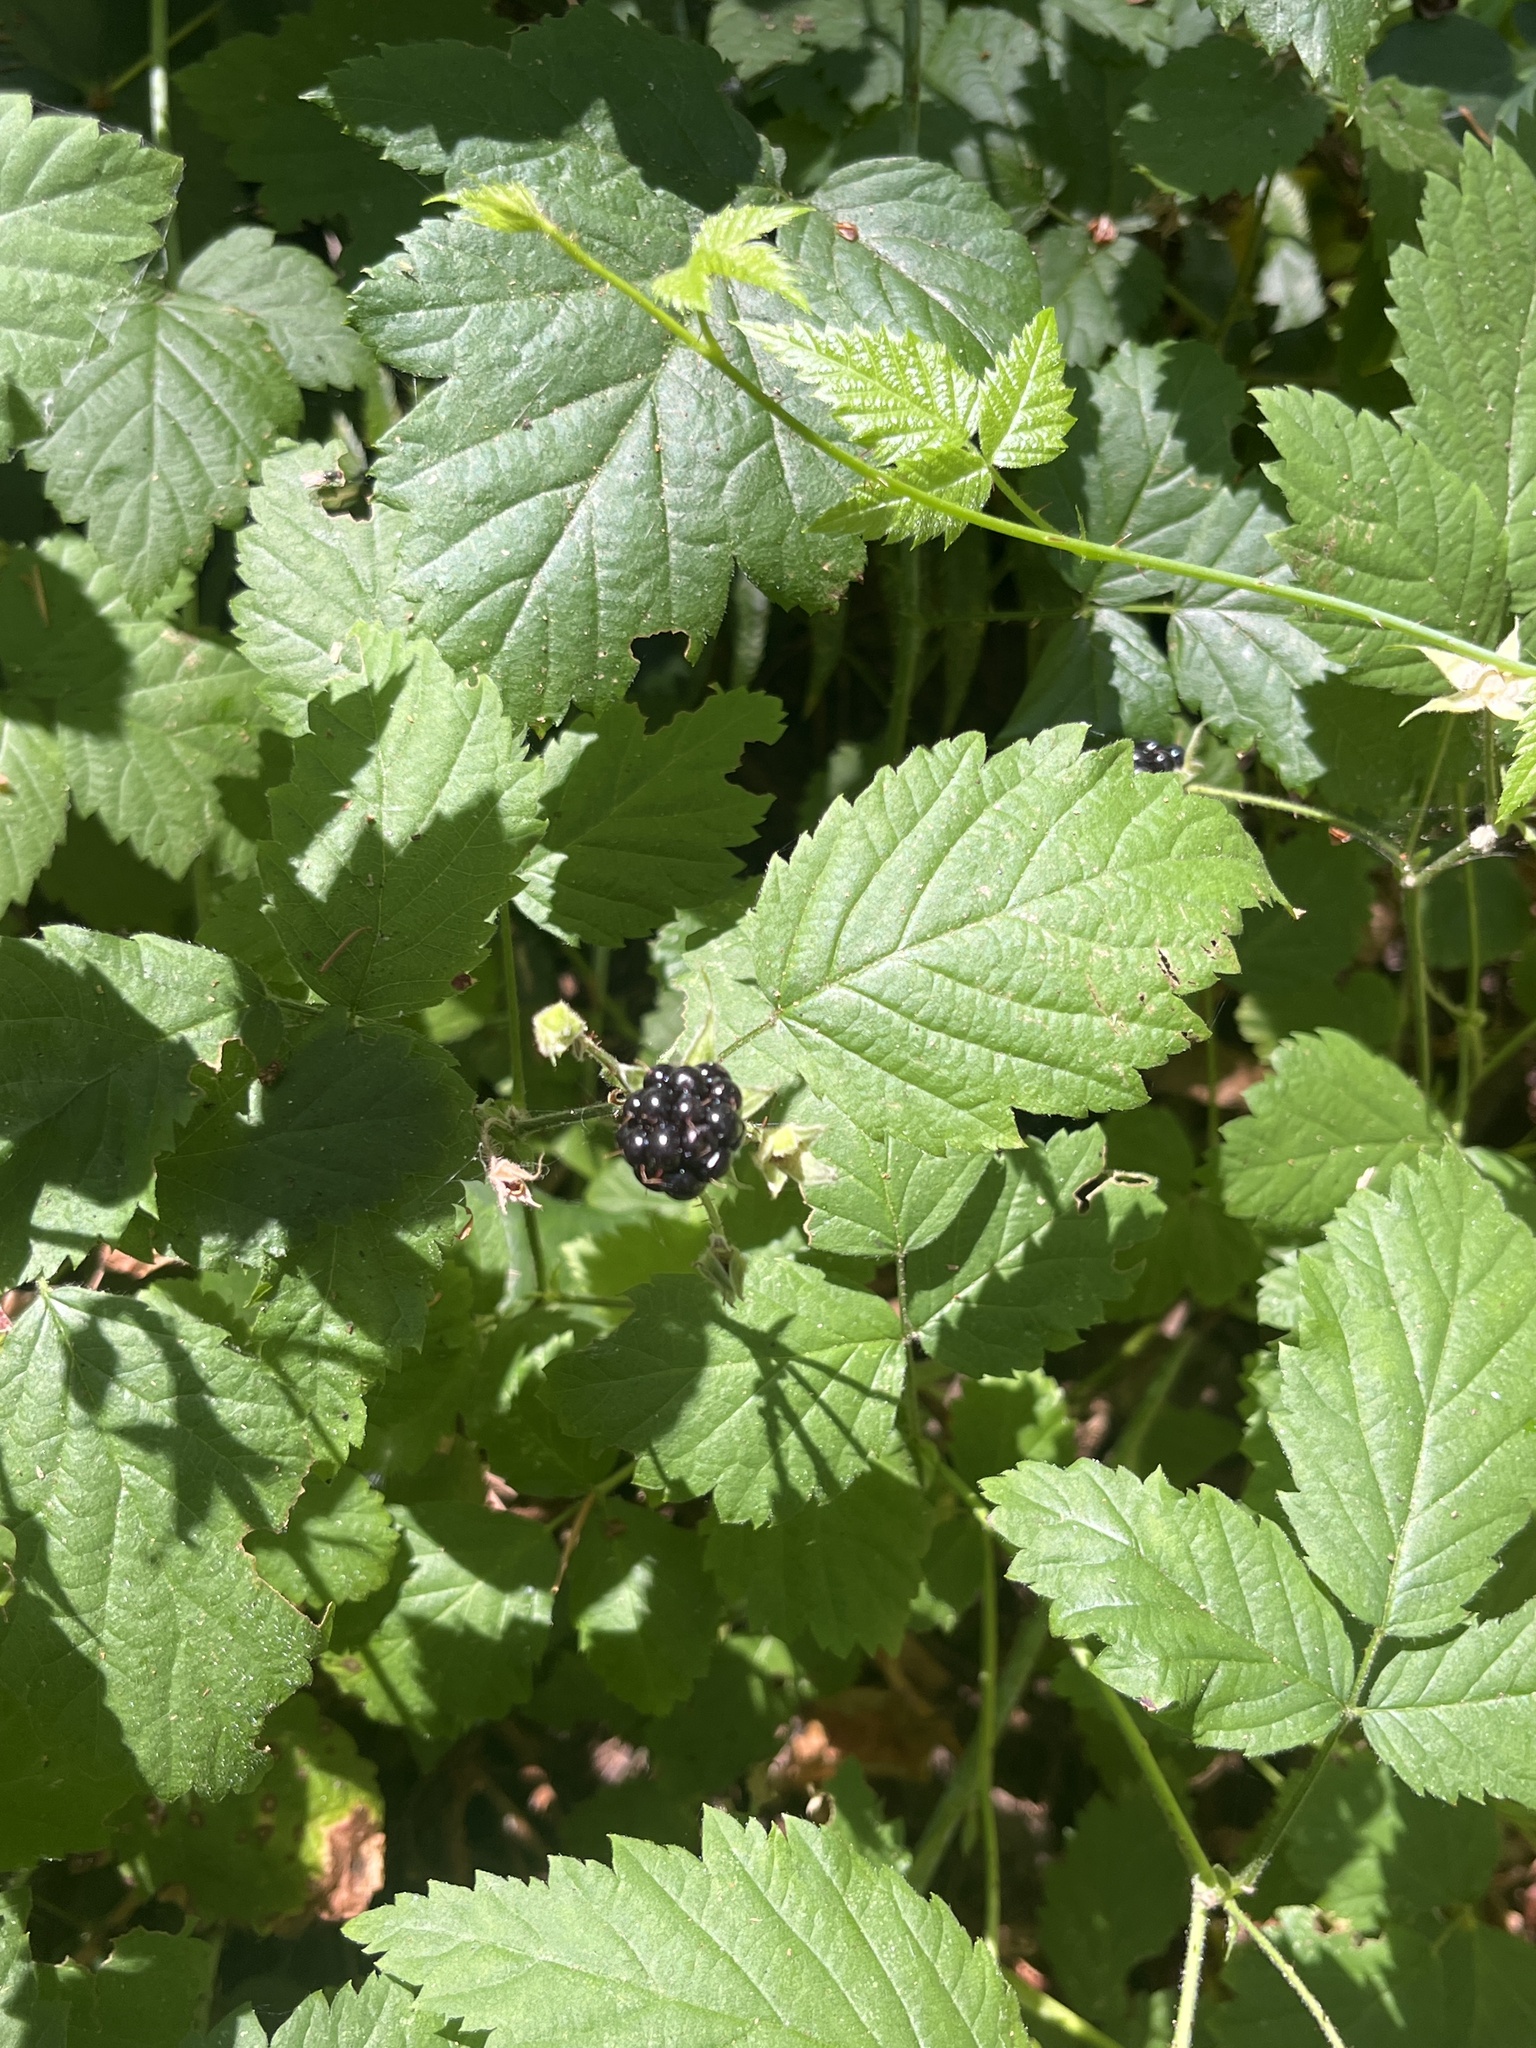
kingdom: Plantae
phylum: Tracheophyta
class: Magnoliopsida
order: Rosales
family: Rosaceae
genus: Rubus
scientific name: Rubus ursinus
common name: Pacific blackberry
